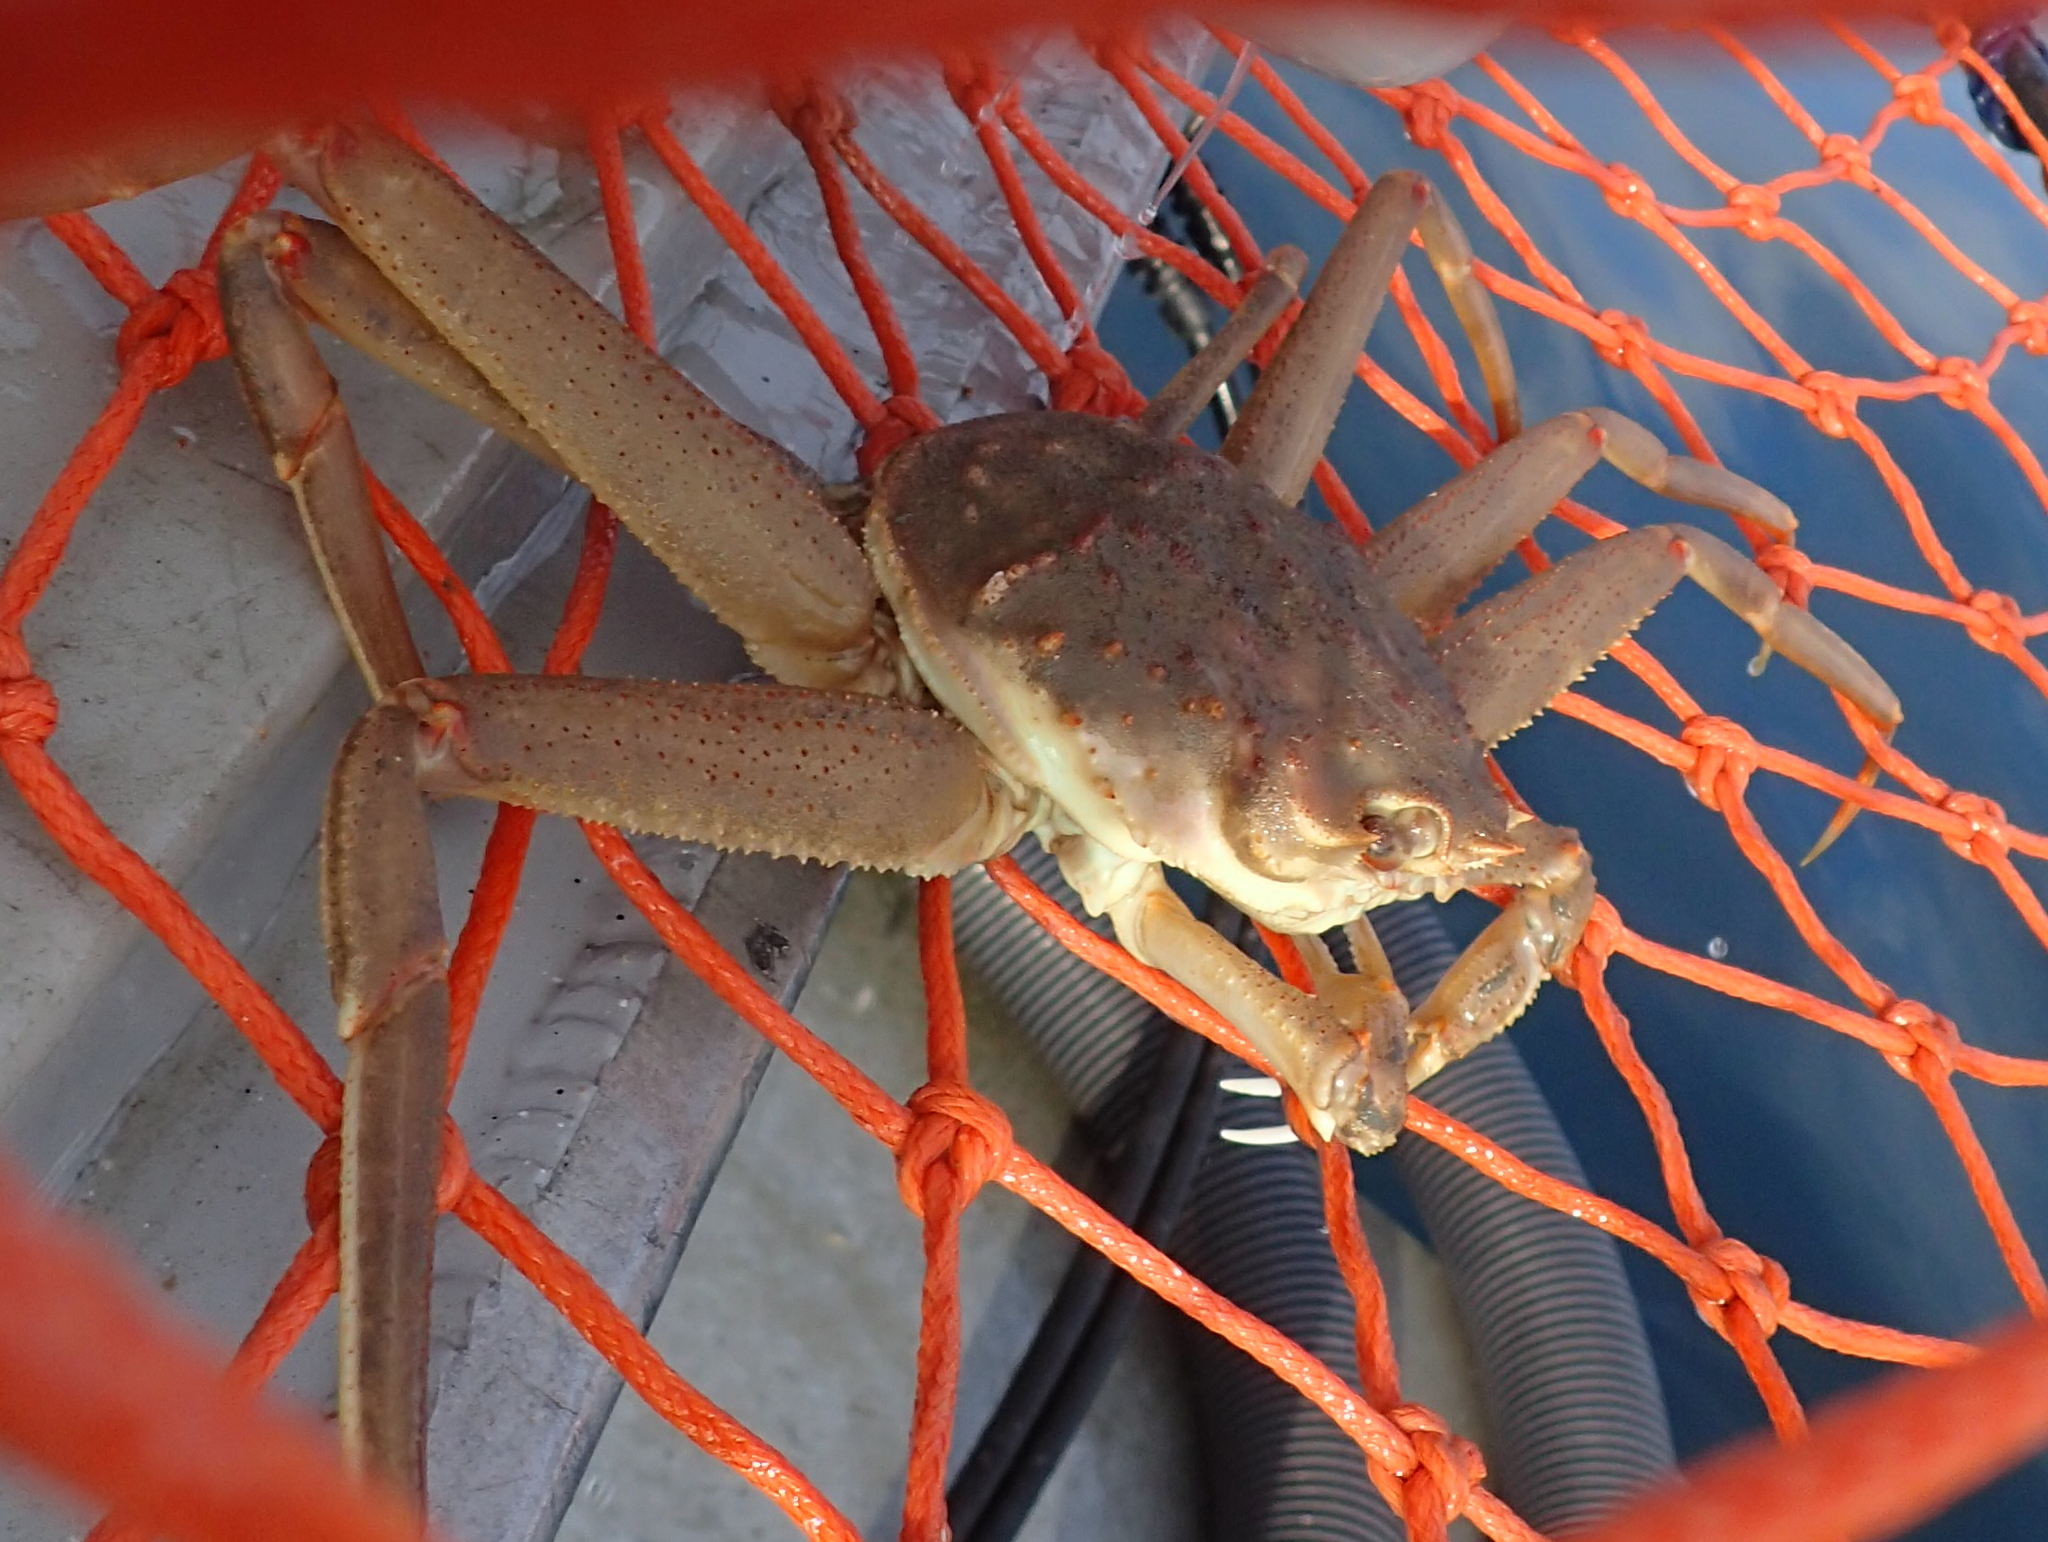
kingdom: Animalia
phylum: Arthropoda
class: Malacostraca
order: Decapoda
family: Oregoniidae
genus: Chionoecetes
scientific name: Chionoecetes bairdi
